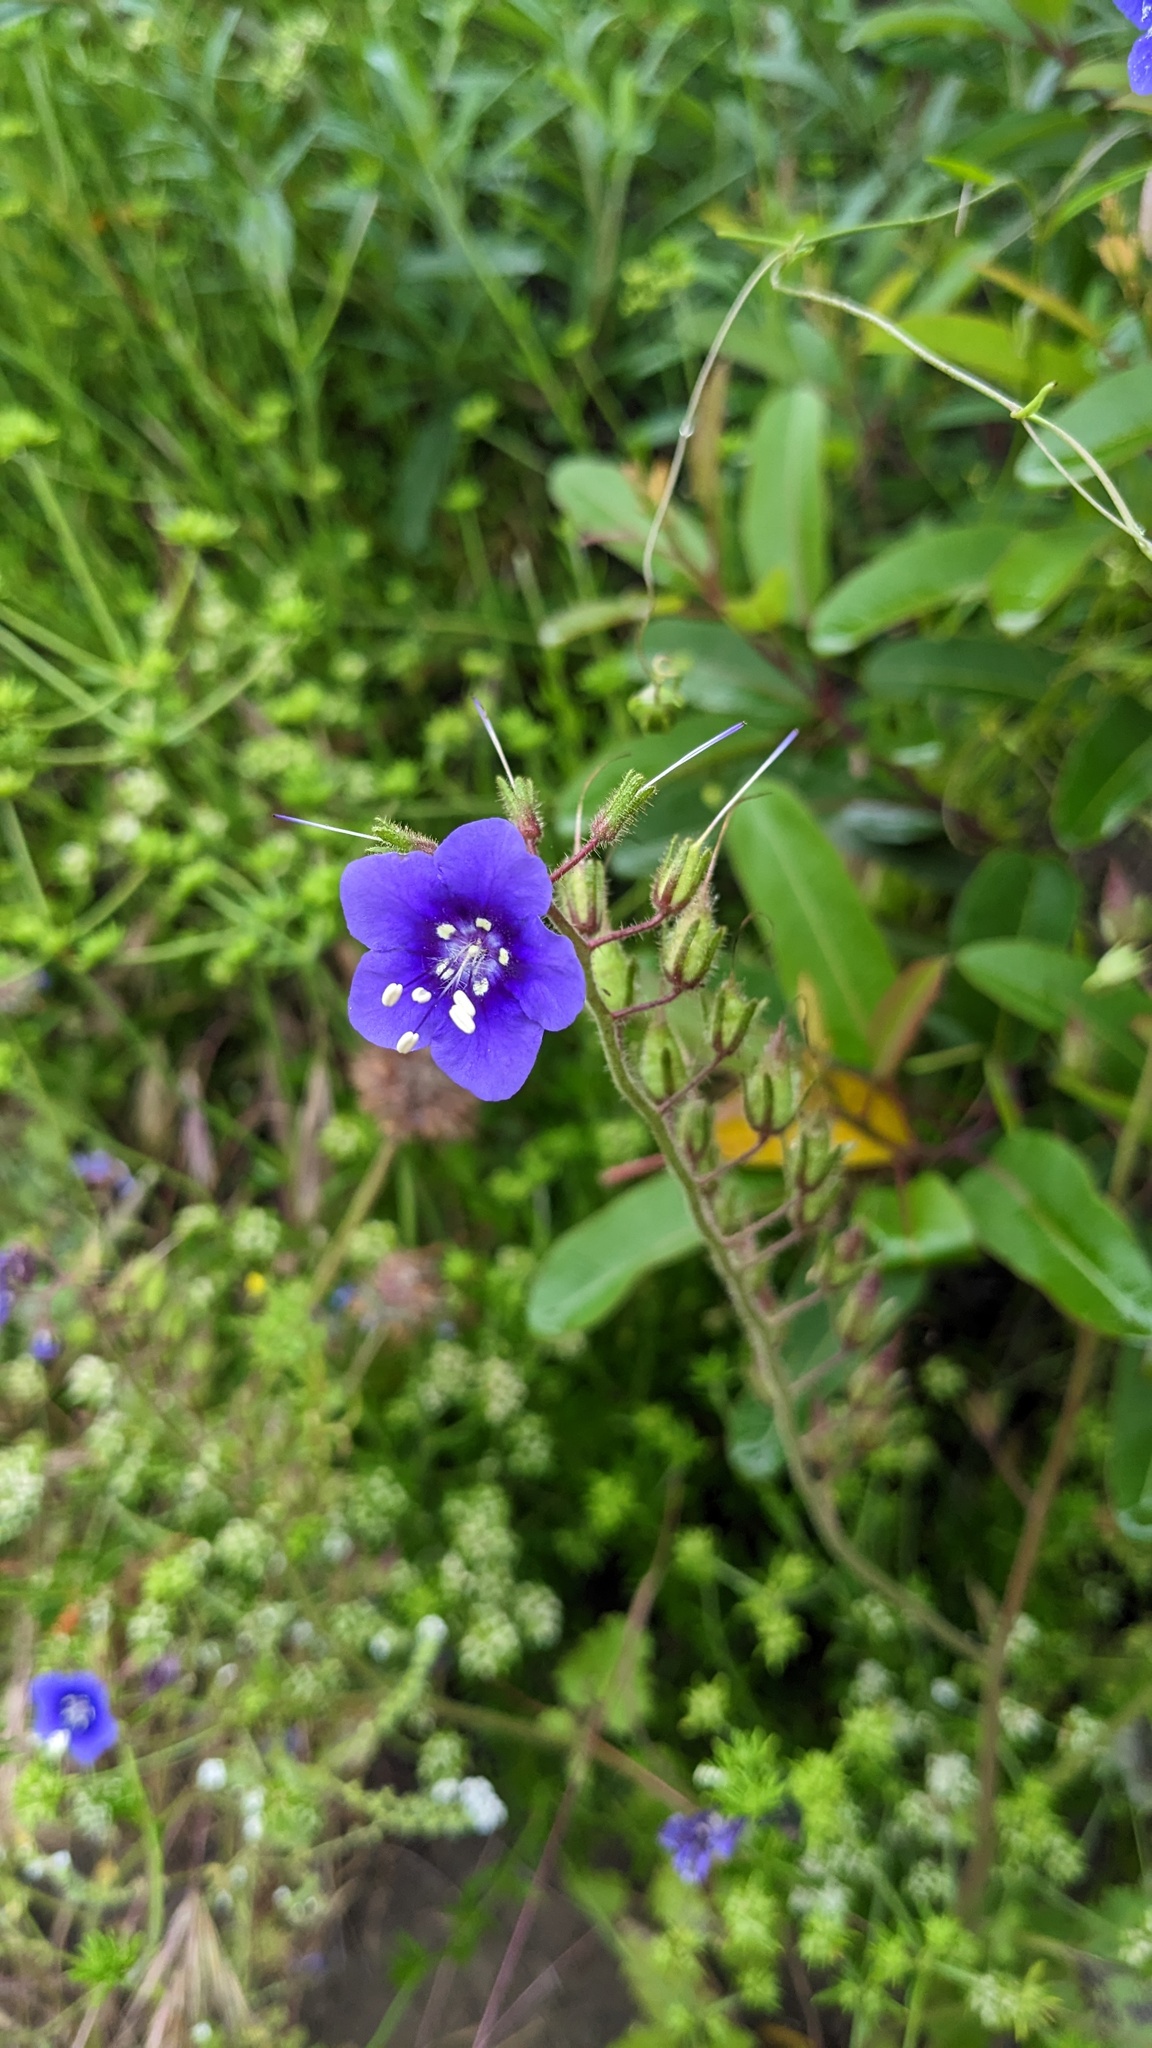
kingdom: Plantae
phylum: Tracheophyta
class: Magnoliopsida
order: Boraginales
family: Hydrophyllaceae
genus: Phacelia
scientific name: Phacelia parryi
